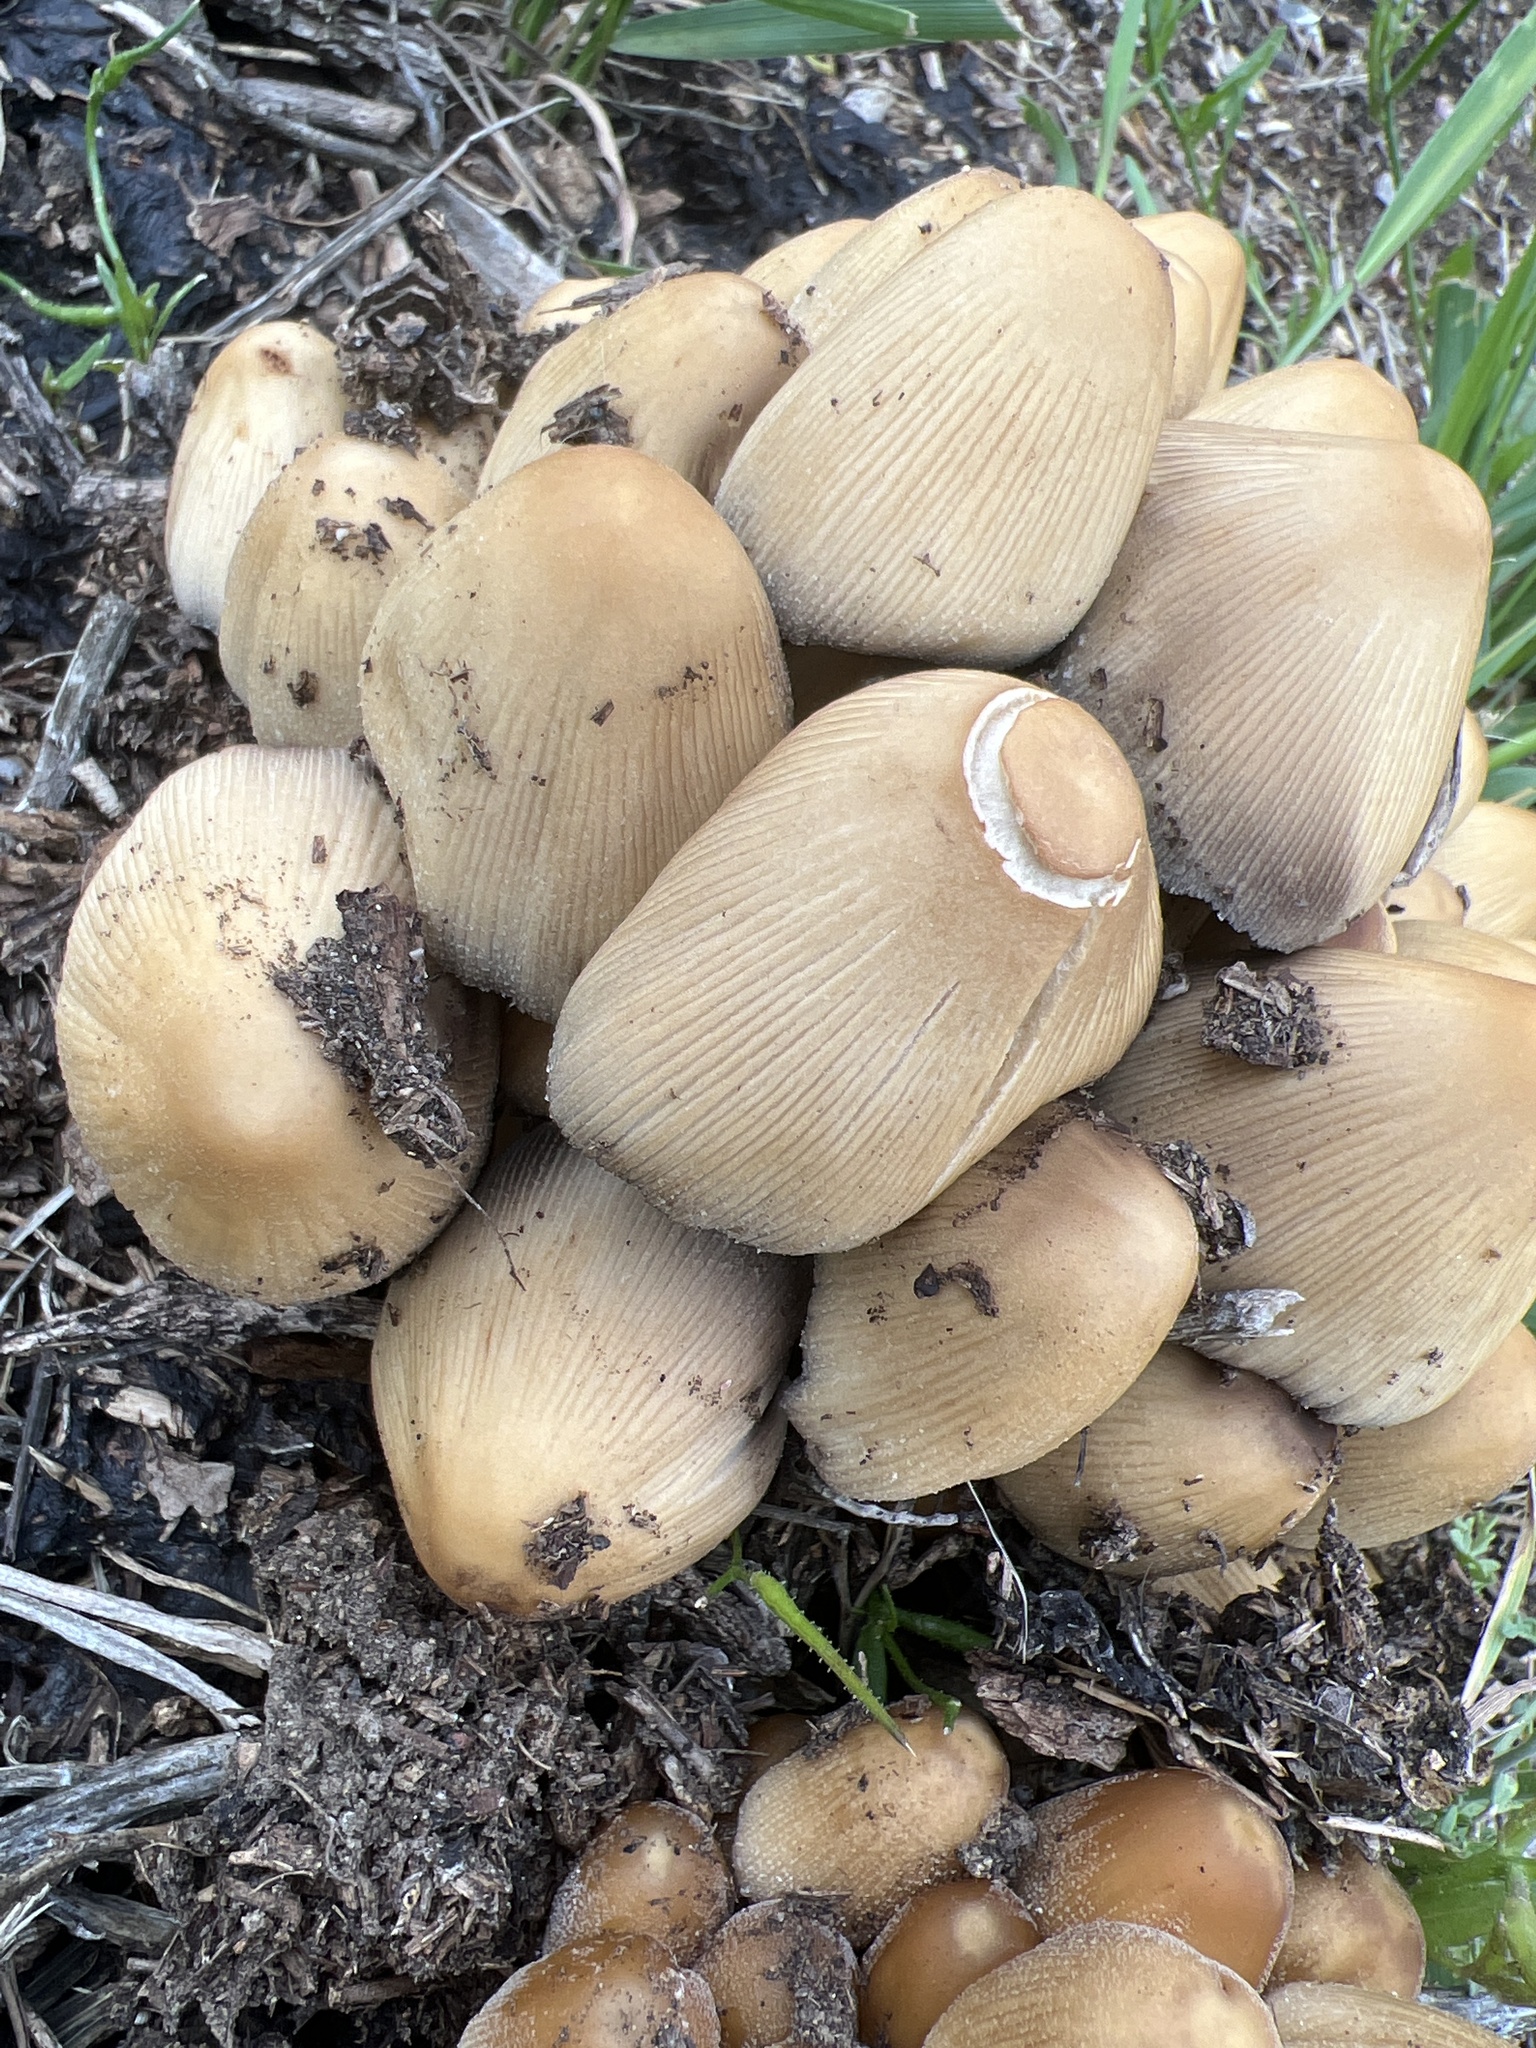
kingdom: Fungi
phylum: Basidiomycota
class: Agaricomycetes
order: Agaricales
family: Psathyrellaceae
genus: Coprinellus
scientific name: Coprinellus micaceus
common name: Glistening ink-cap
